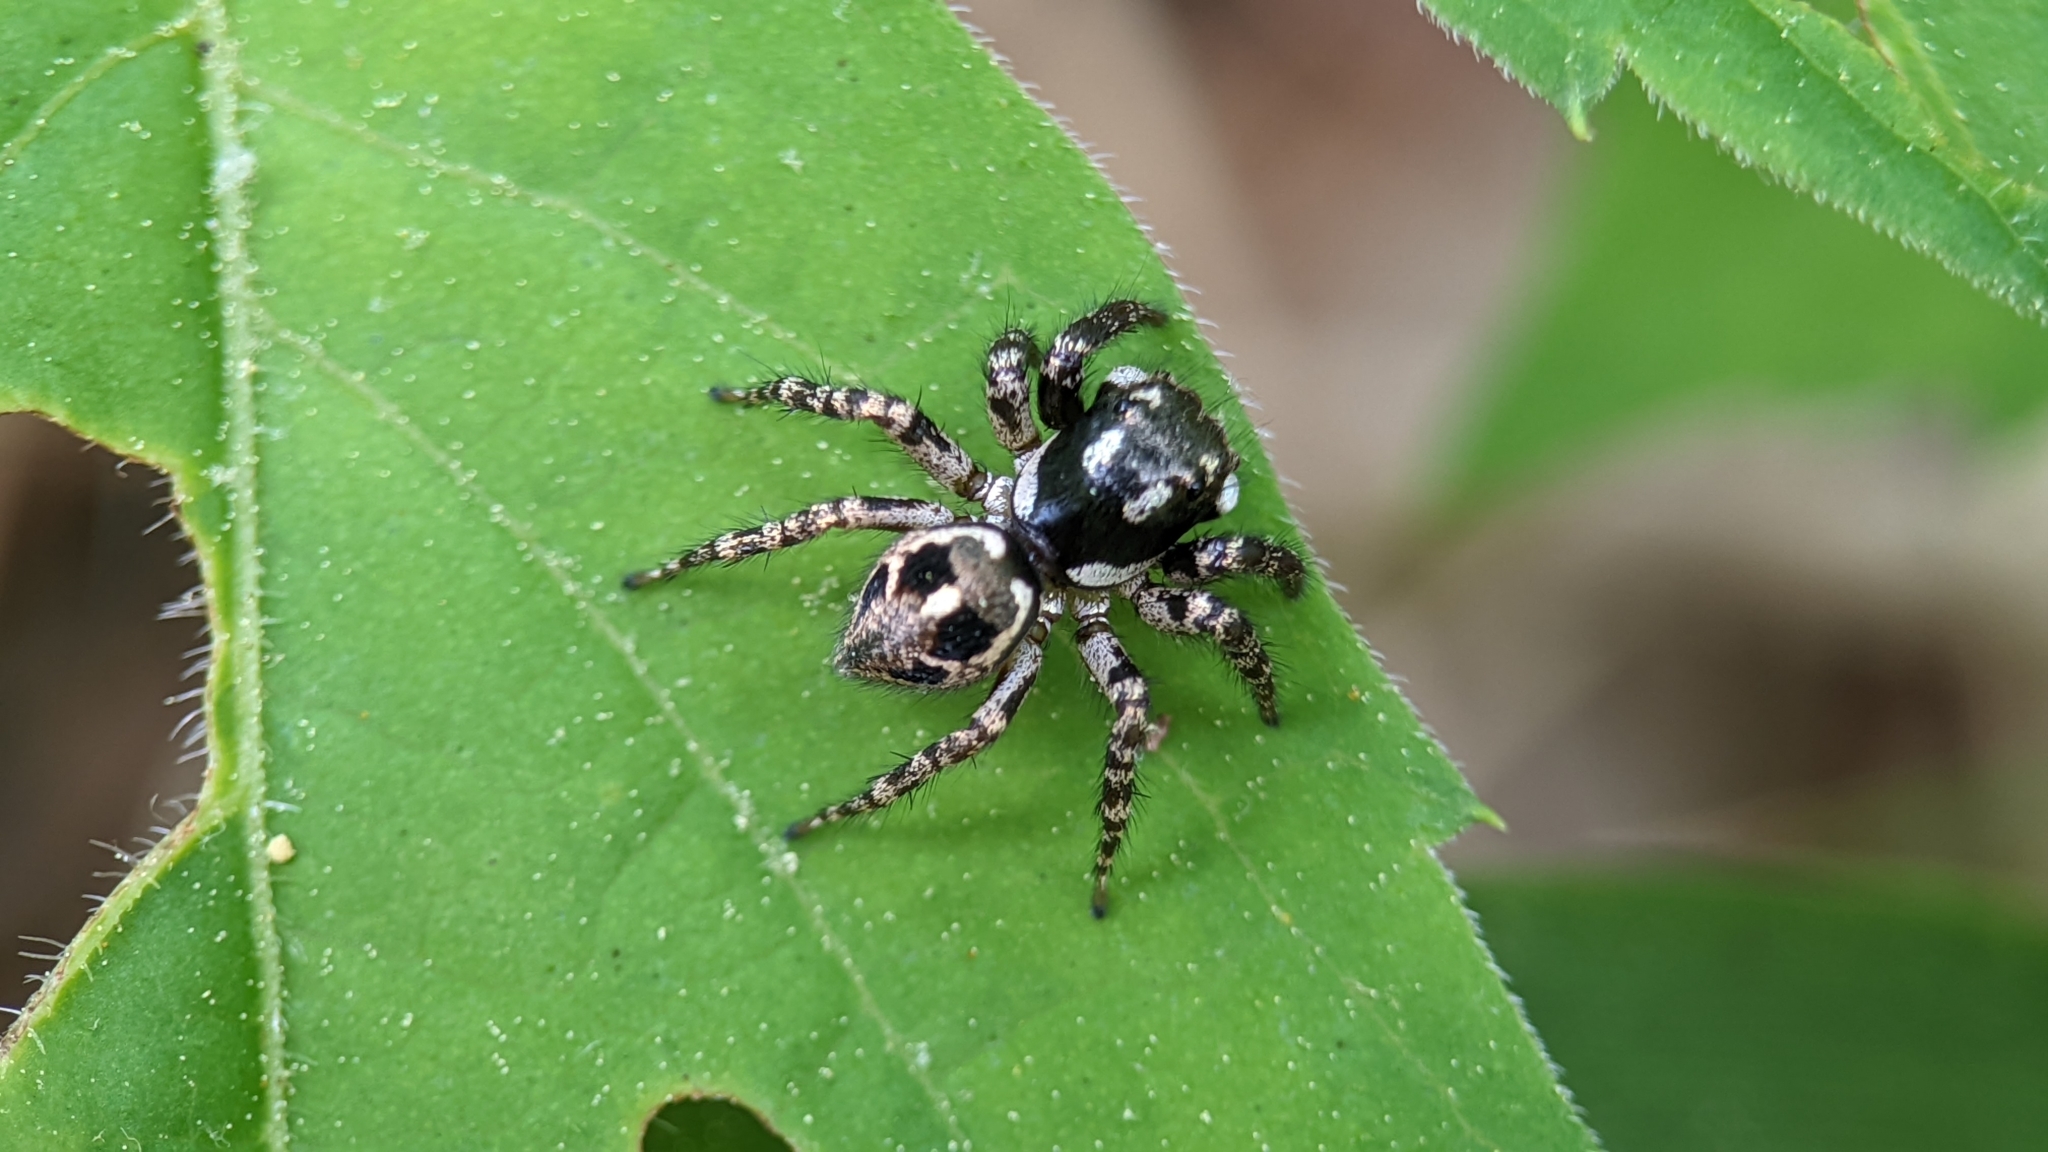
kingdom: Animalia
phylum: Arthropoda
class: Arachnida
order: Araneae
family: Salticidae
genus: Anasaitis
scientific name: Anasaitis canosa
